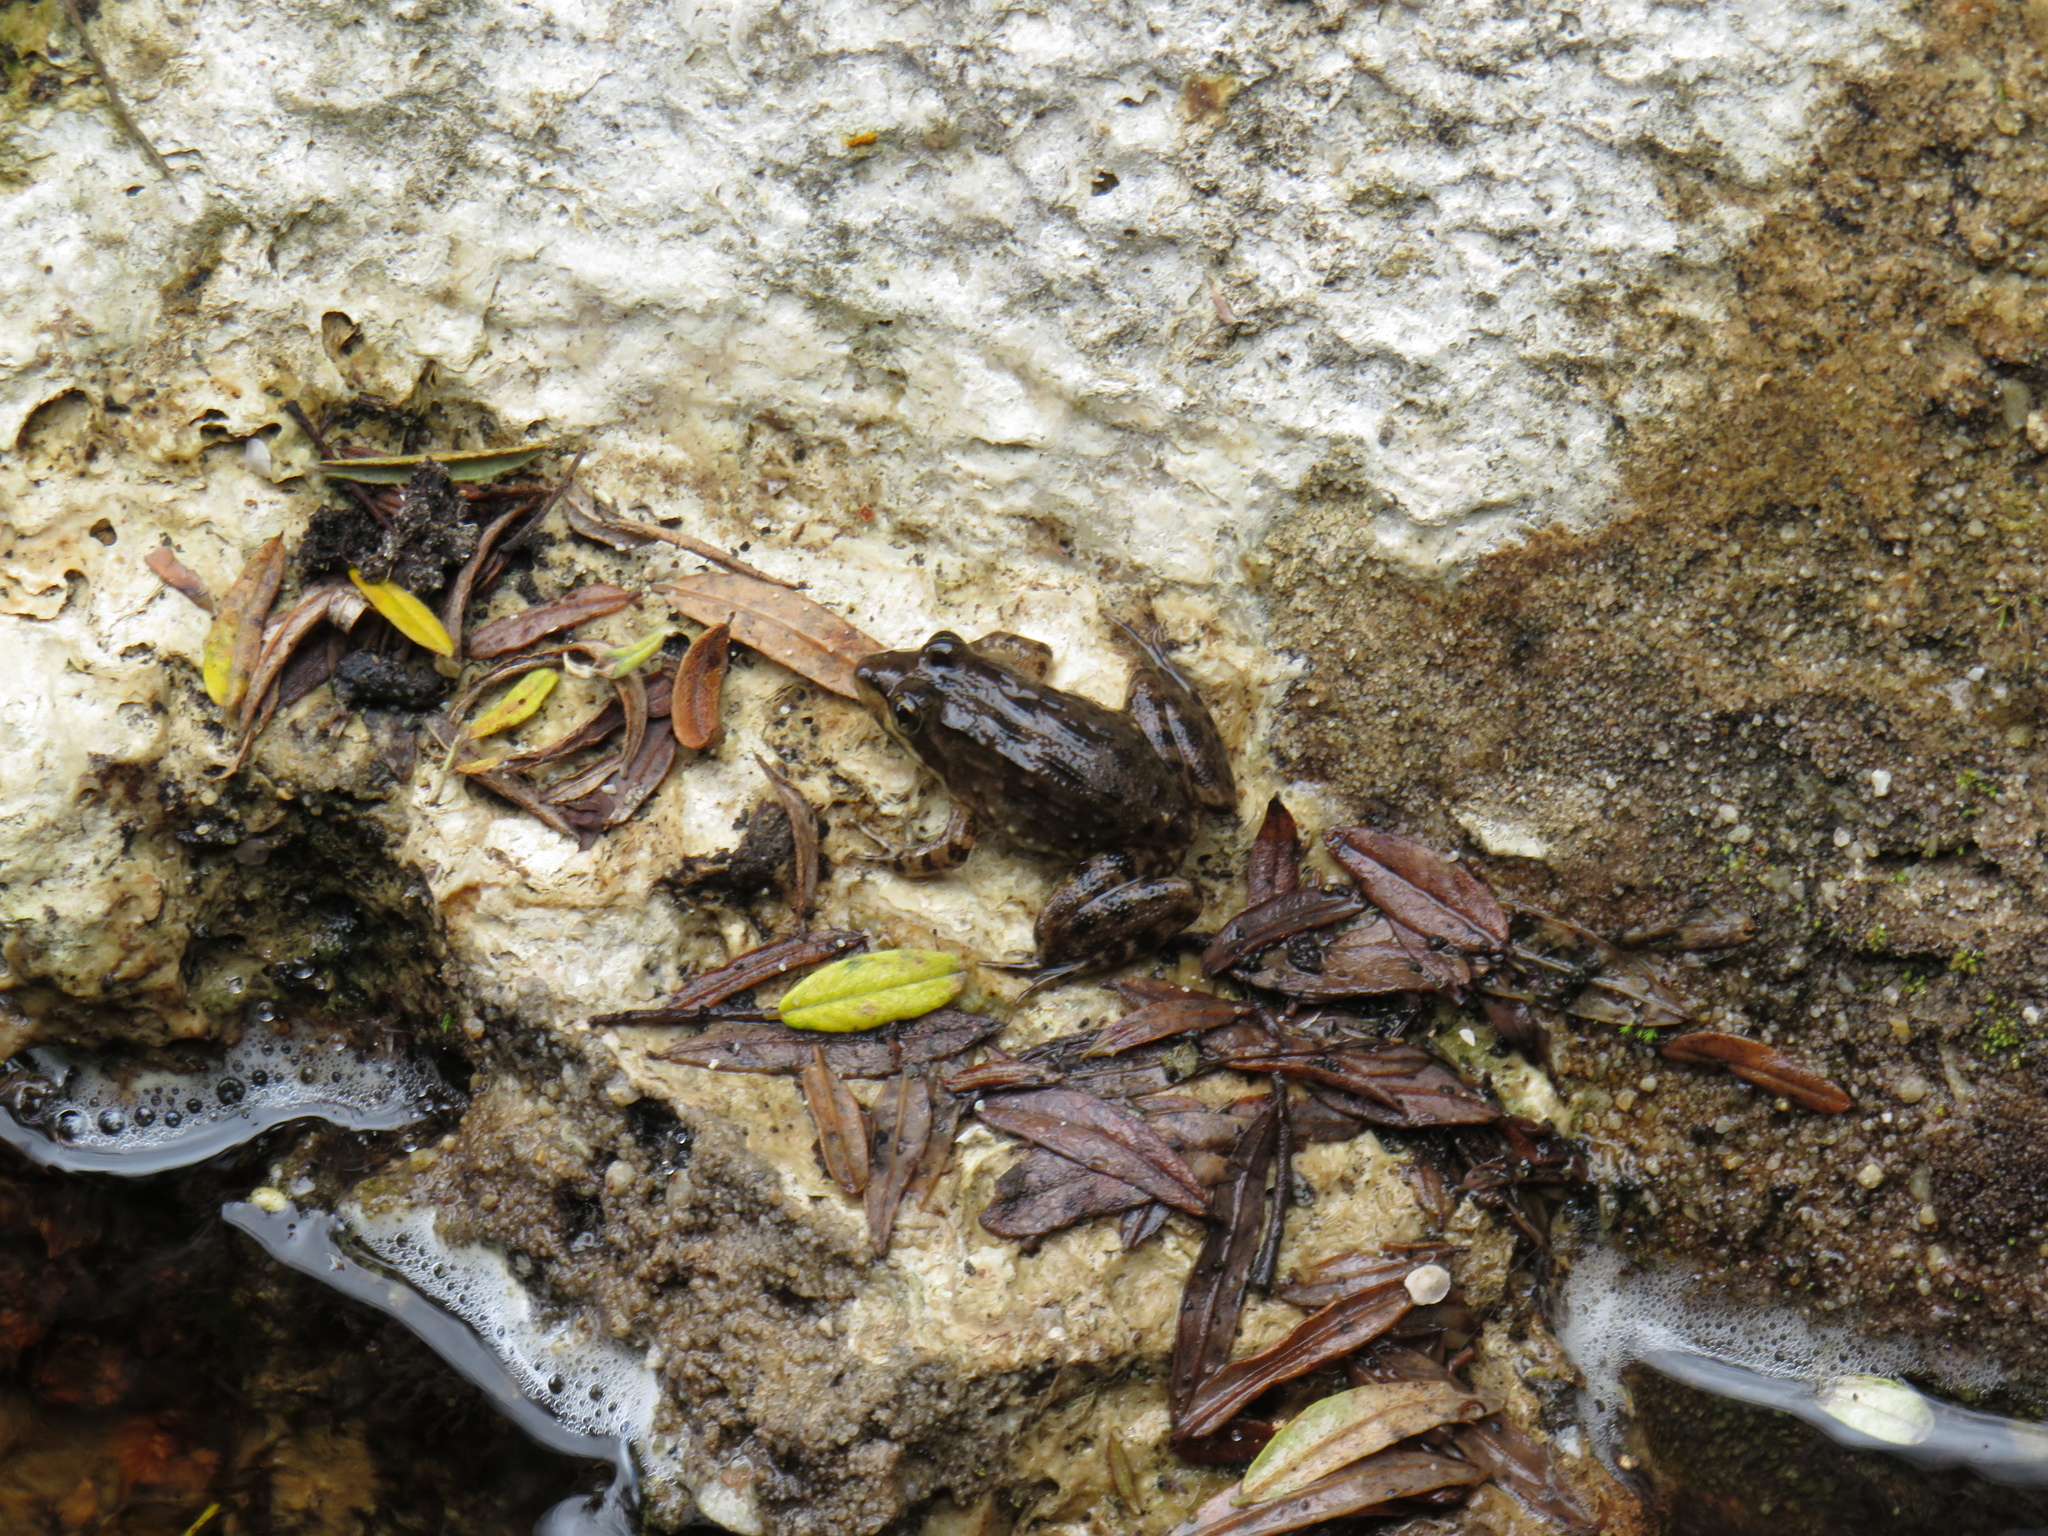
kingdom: Animalia
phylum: Chordata
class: Amphibia
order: Anura
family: Pyxicephalidae
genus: Amietia
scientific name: Amietia fuscigula
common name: Cape rana
